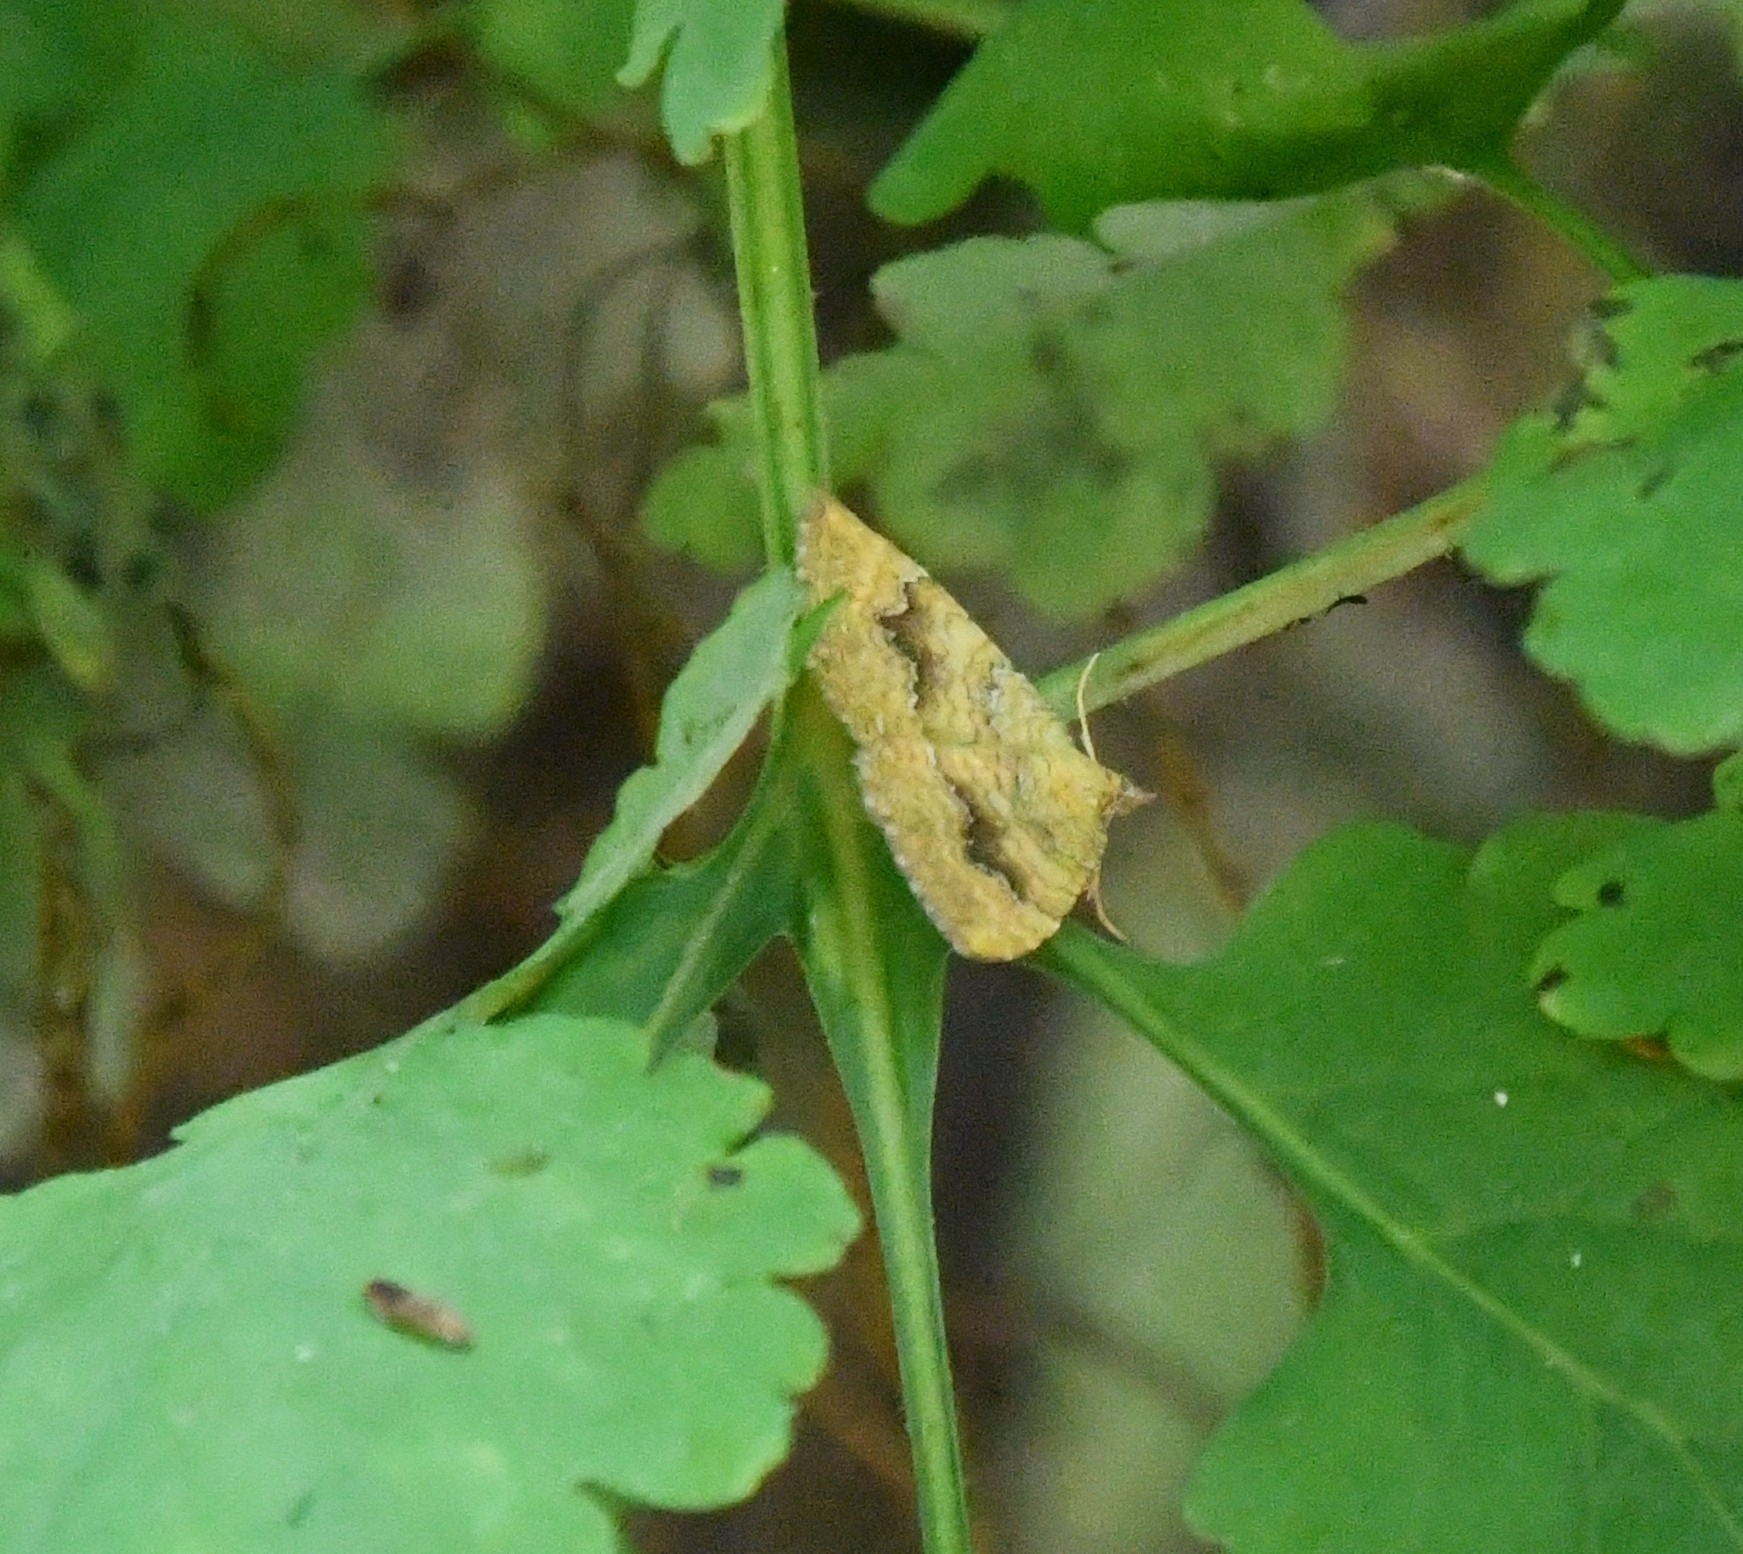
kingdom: Animalia
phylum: Arthropoda
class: Insecta
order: Lepidoptera
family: Geometridae
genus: Camptogramma
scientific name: Camptogramma bilineata
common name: Yellow shell
